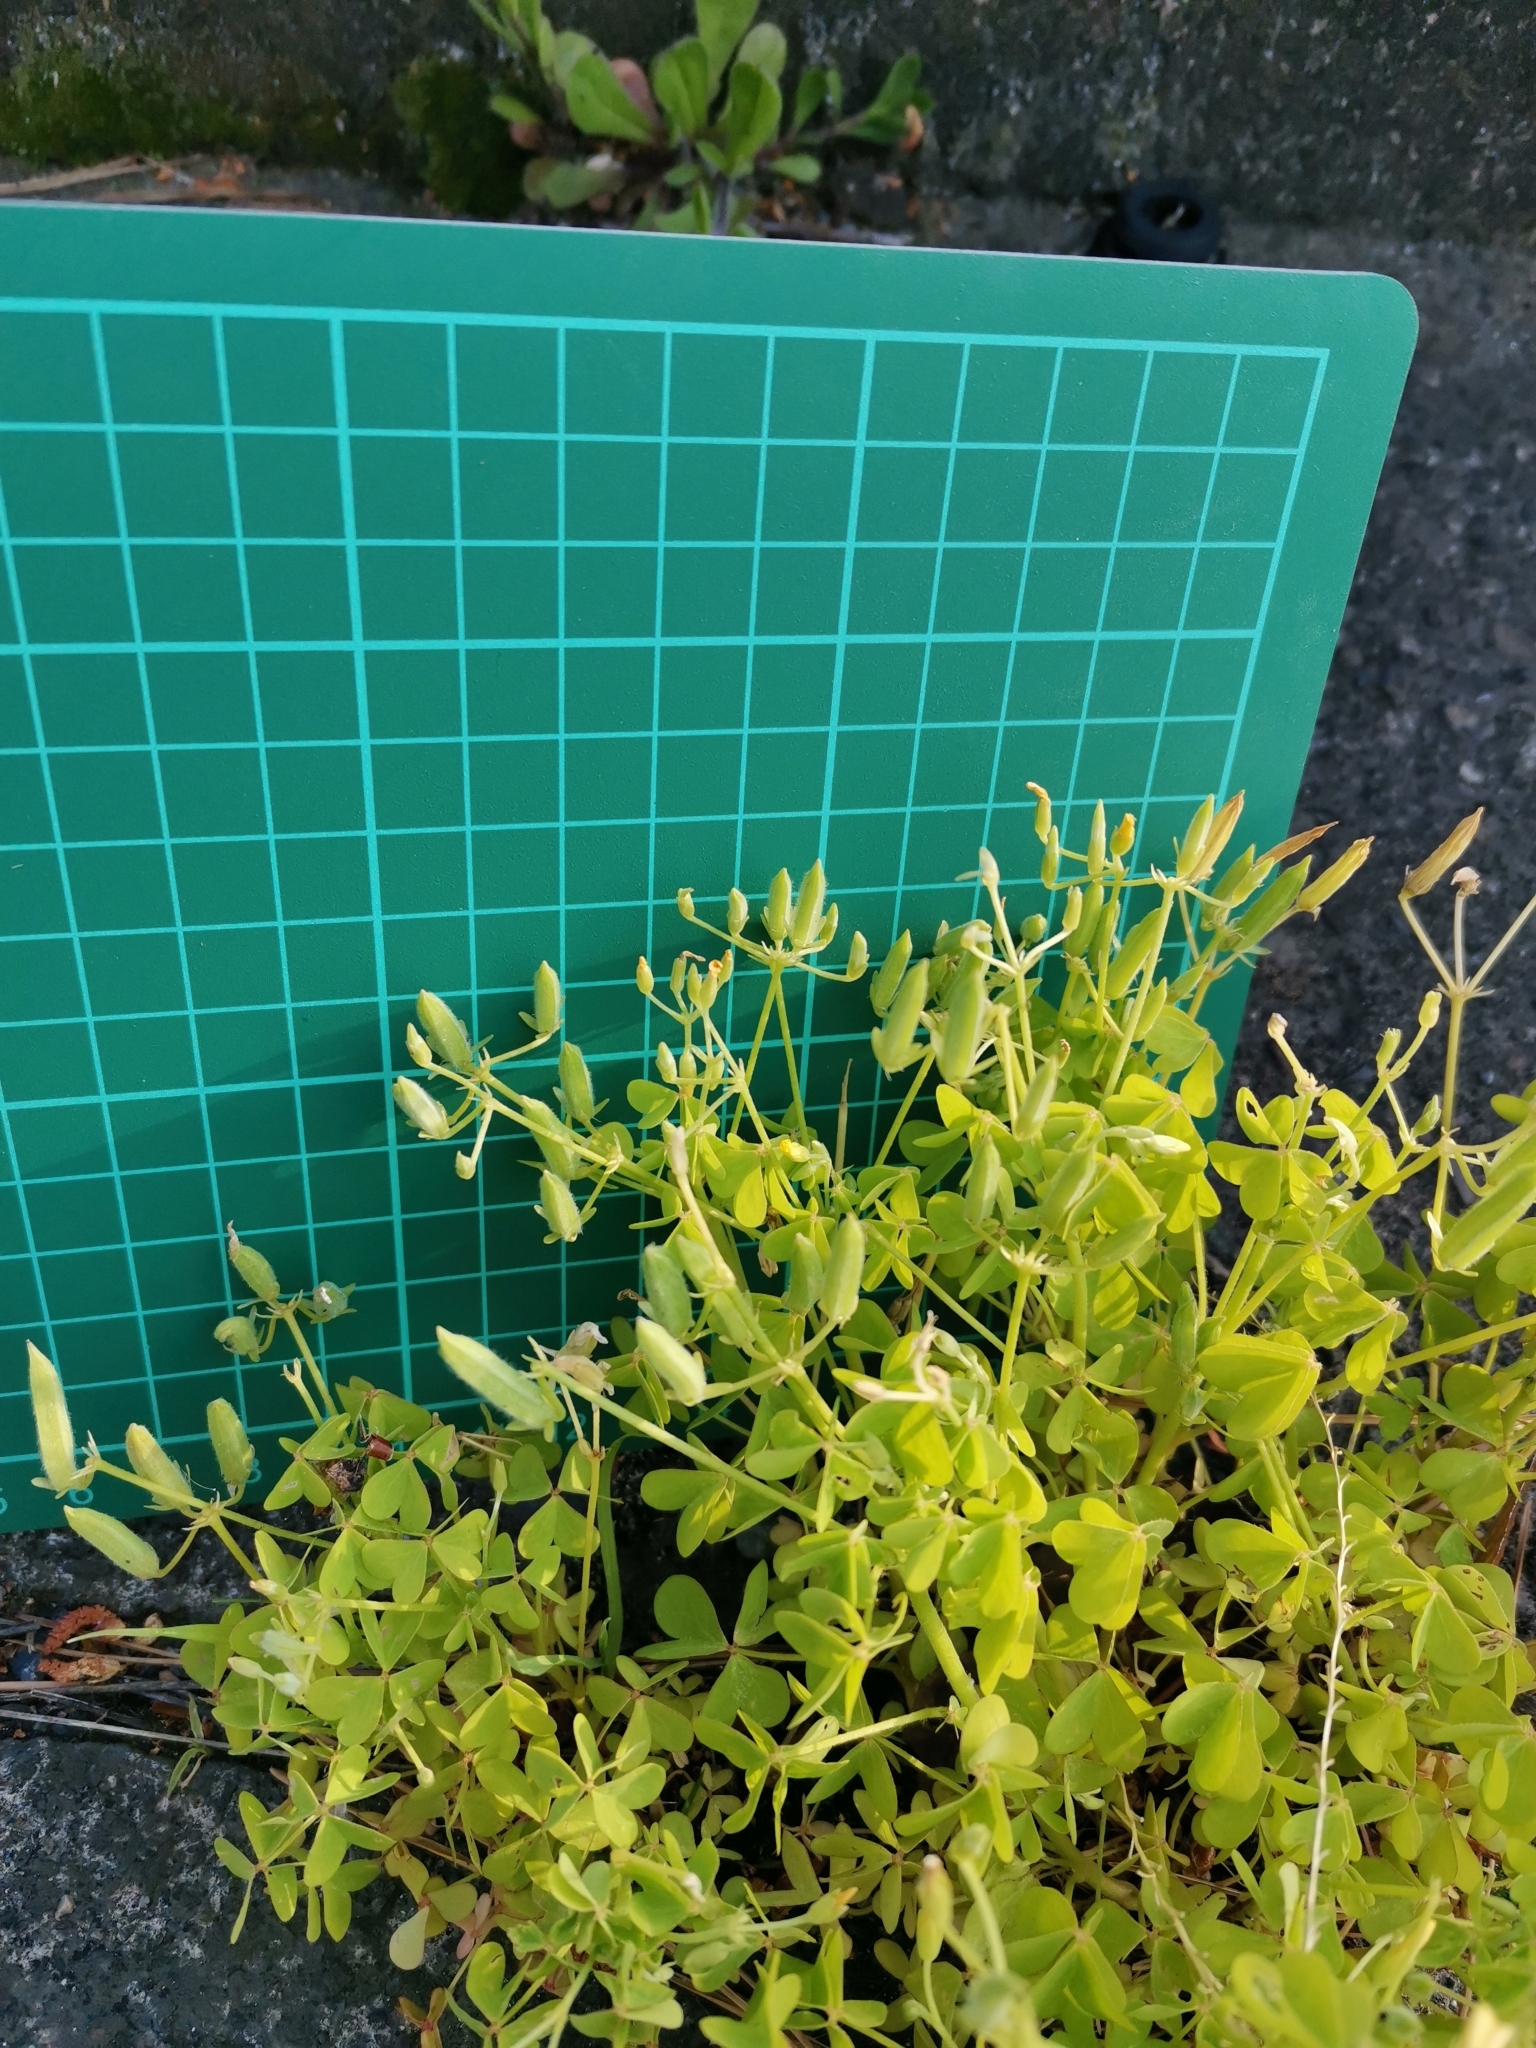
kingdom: Plantae
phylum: Tracheophyta
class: Magnoliopsida
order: Oxalidales
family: Oxalidaceae
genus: Oxalis
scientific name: Oxalis dillenii
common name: Sussex yellow-sorrel
